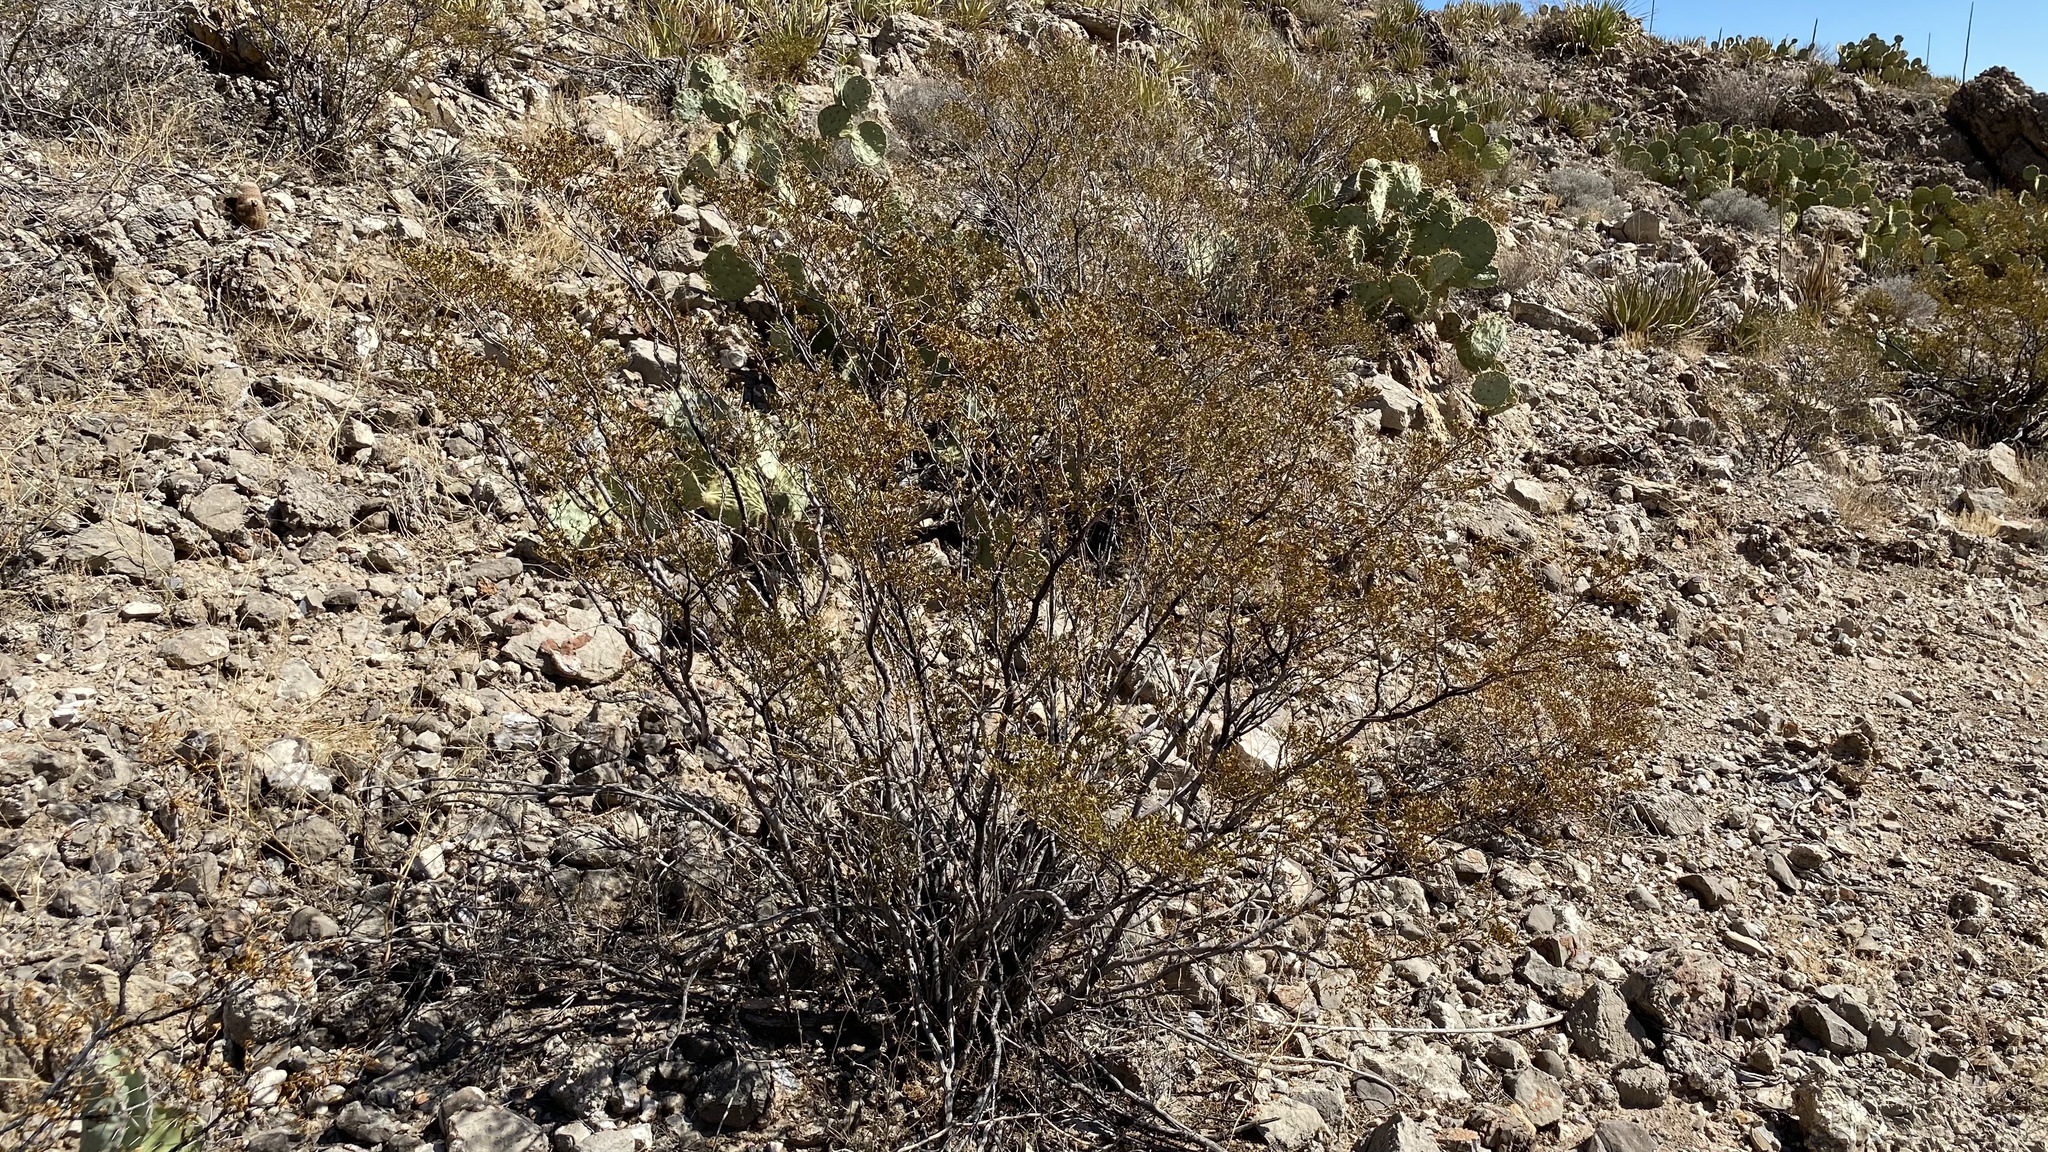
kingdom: Plantae
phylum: Tracheophyta
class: Magnoliopsida
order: Zygophyllales
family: Zygophyllaceae
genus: Larrea
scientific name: Larrea tridentata
